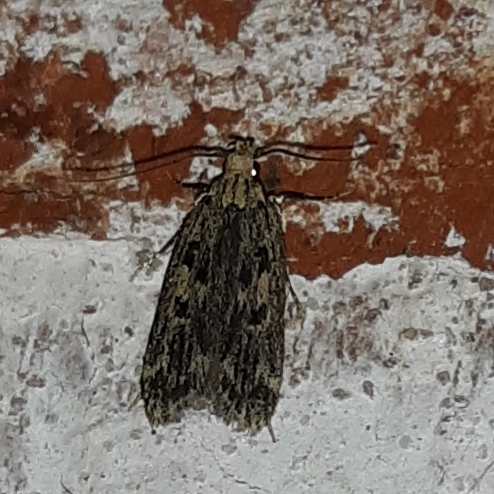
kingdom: Animalia
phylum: Arthropoda
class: Insecta
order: Lepidoptera
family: Lecithoceridae
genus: Martyringa
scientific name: Martyringa latipennis
